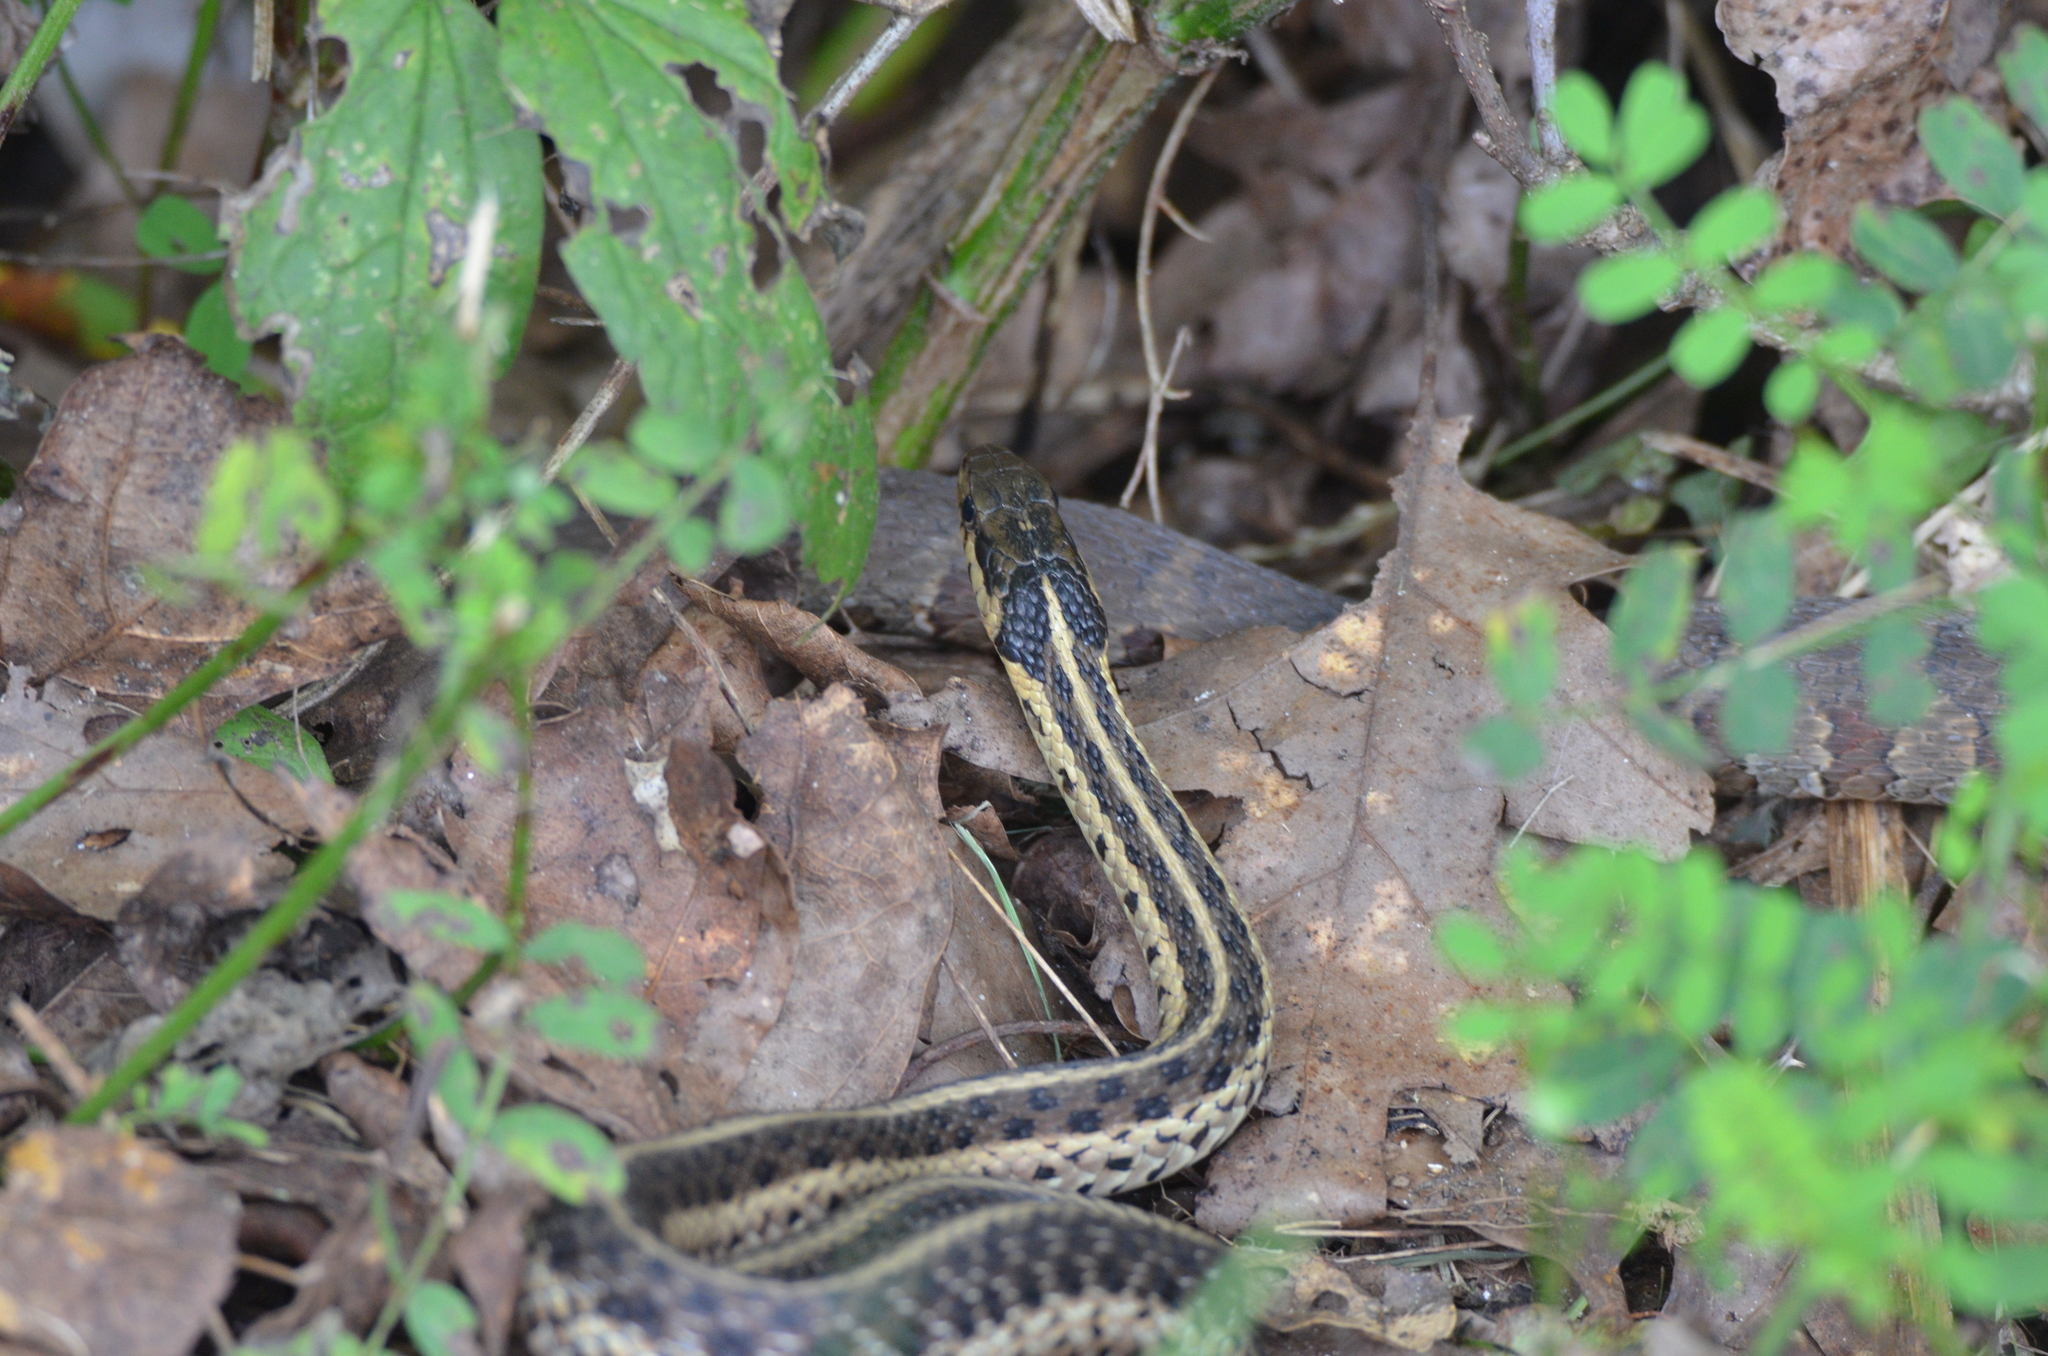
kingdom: Animalia
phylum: Chordata
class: Squamata
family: Colubridae
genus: Thamnophis
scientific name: Thamnophis sirtalis
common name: Common garter snake
